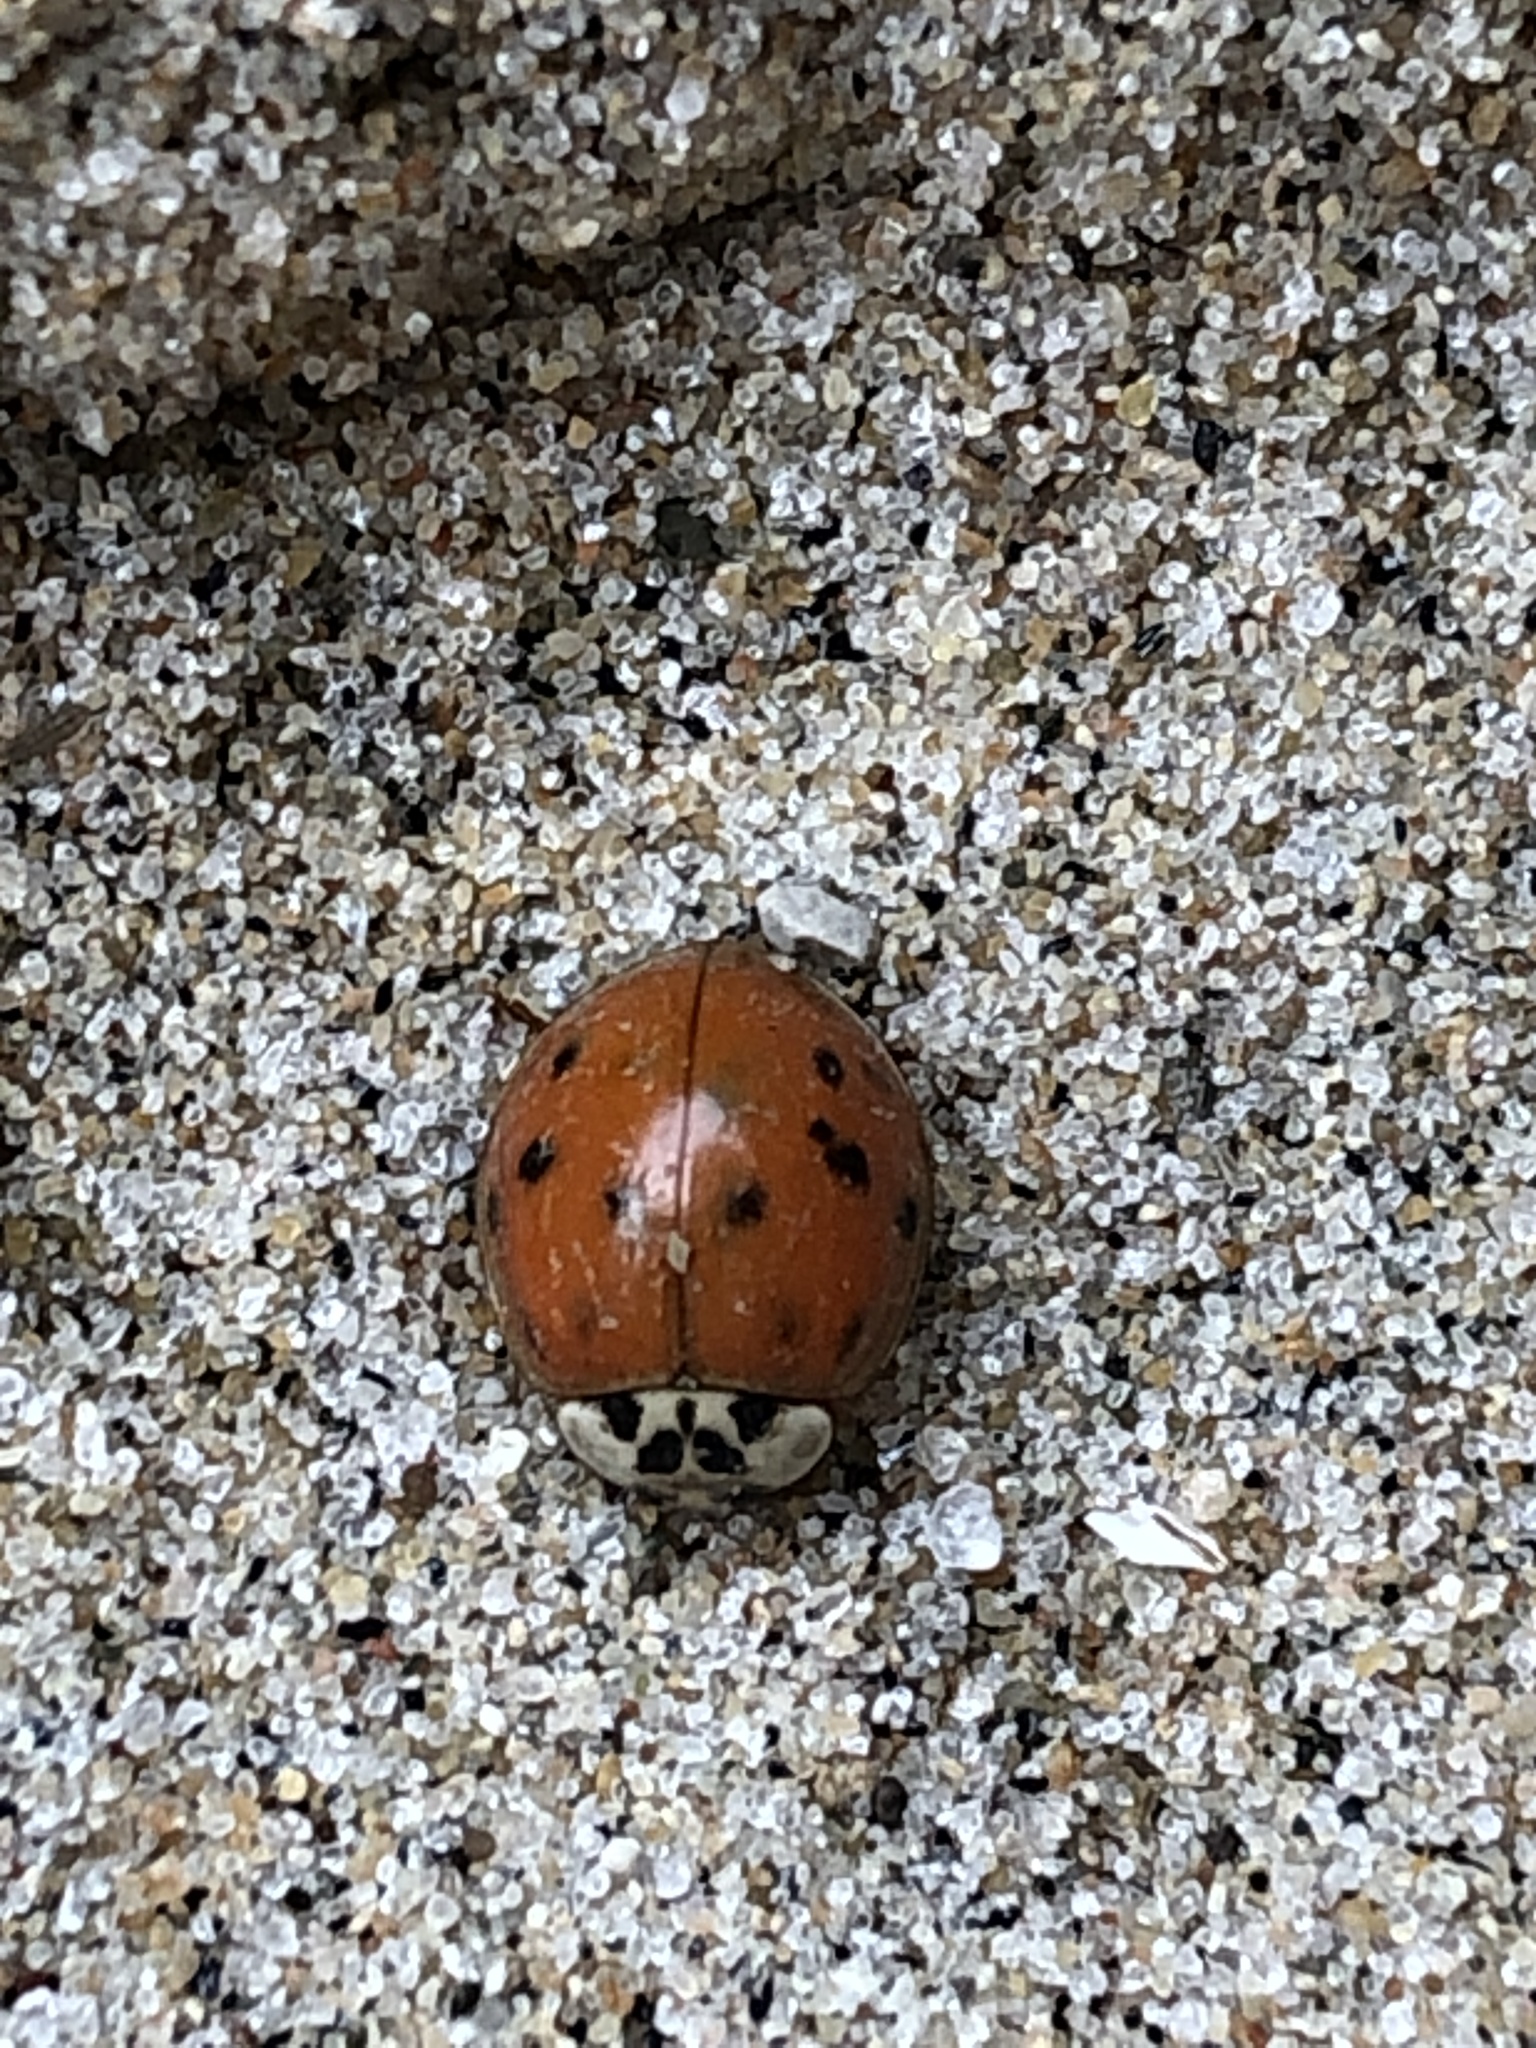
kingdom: Animalia
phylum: Arthropoda
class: Insecta
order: Coleoptera
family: Coccinellidae
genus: Harmonia
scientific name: Harmonia axyridis
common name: Harlequin ladybird
